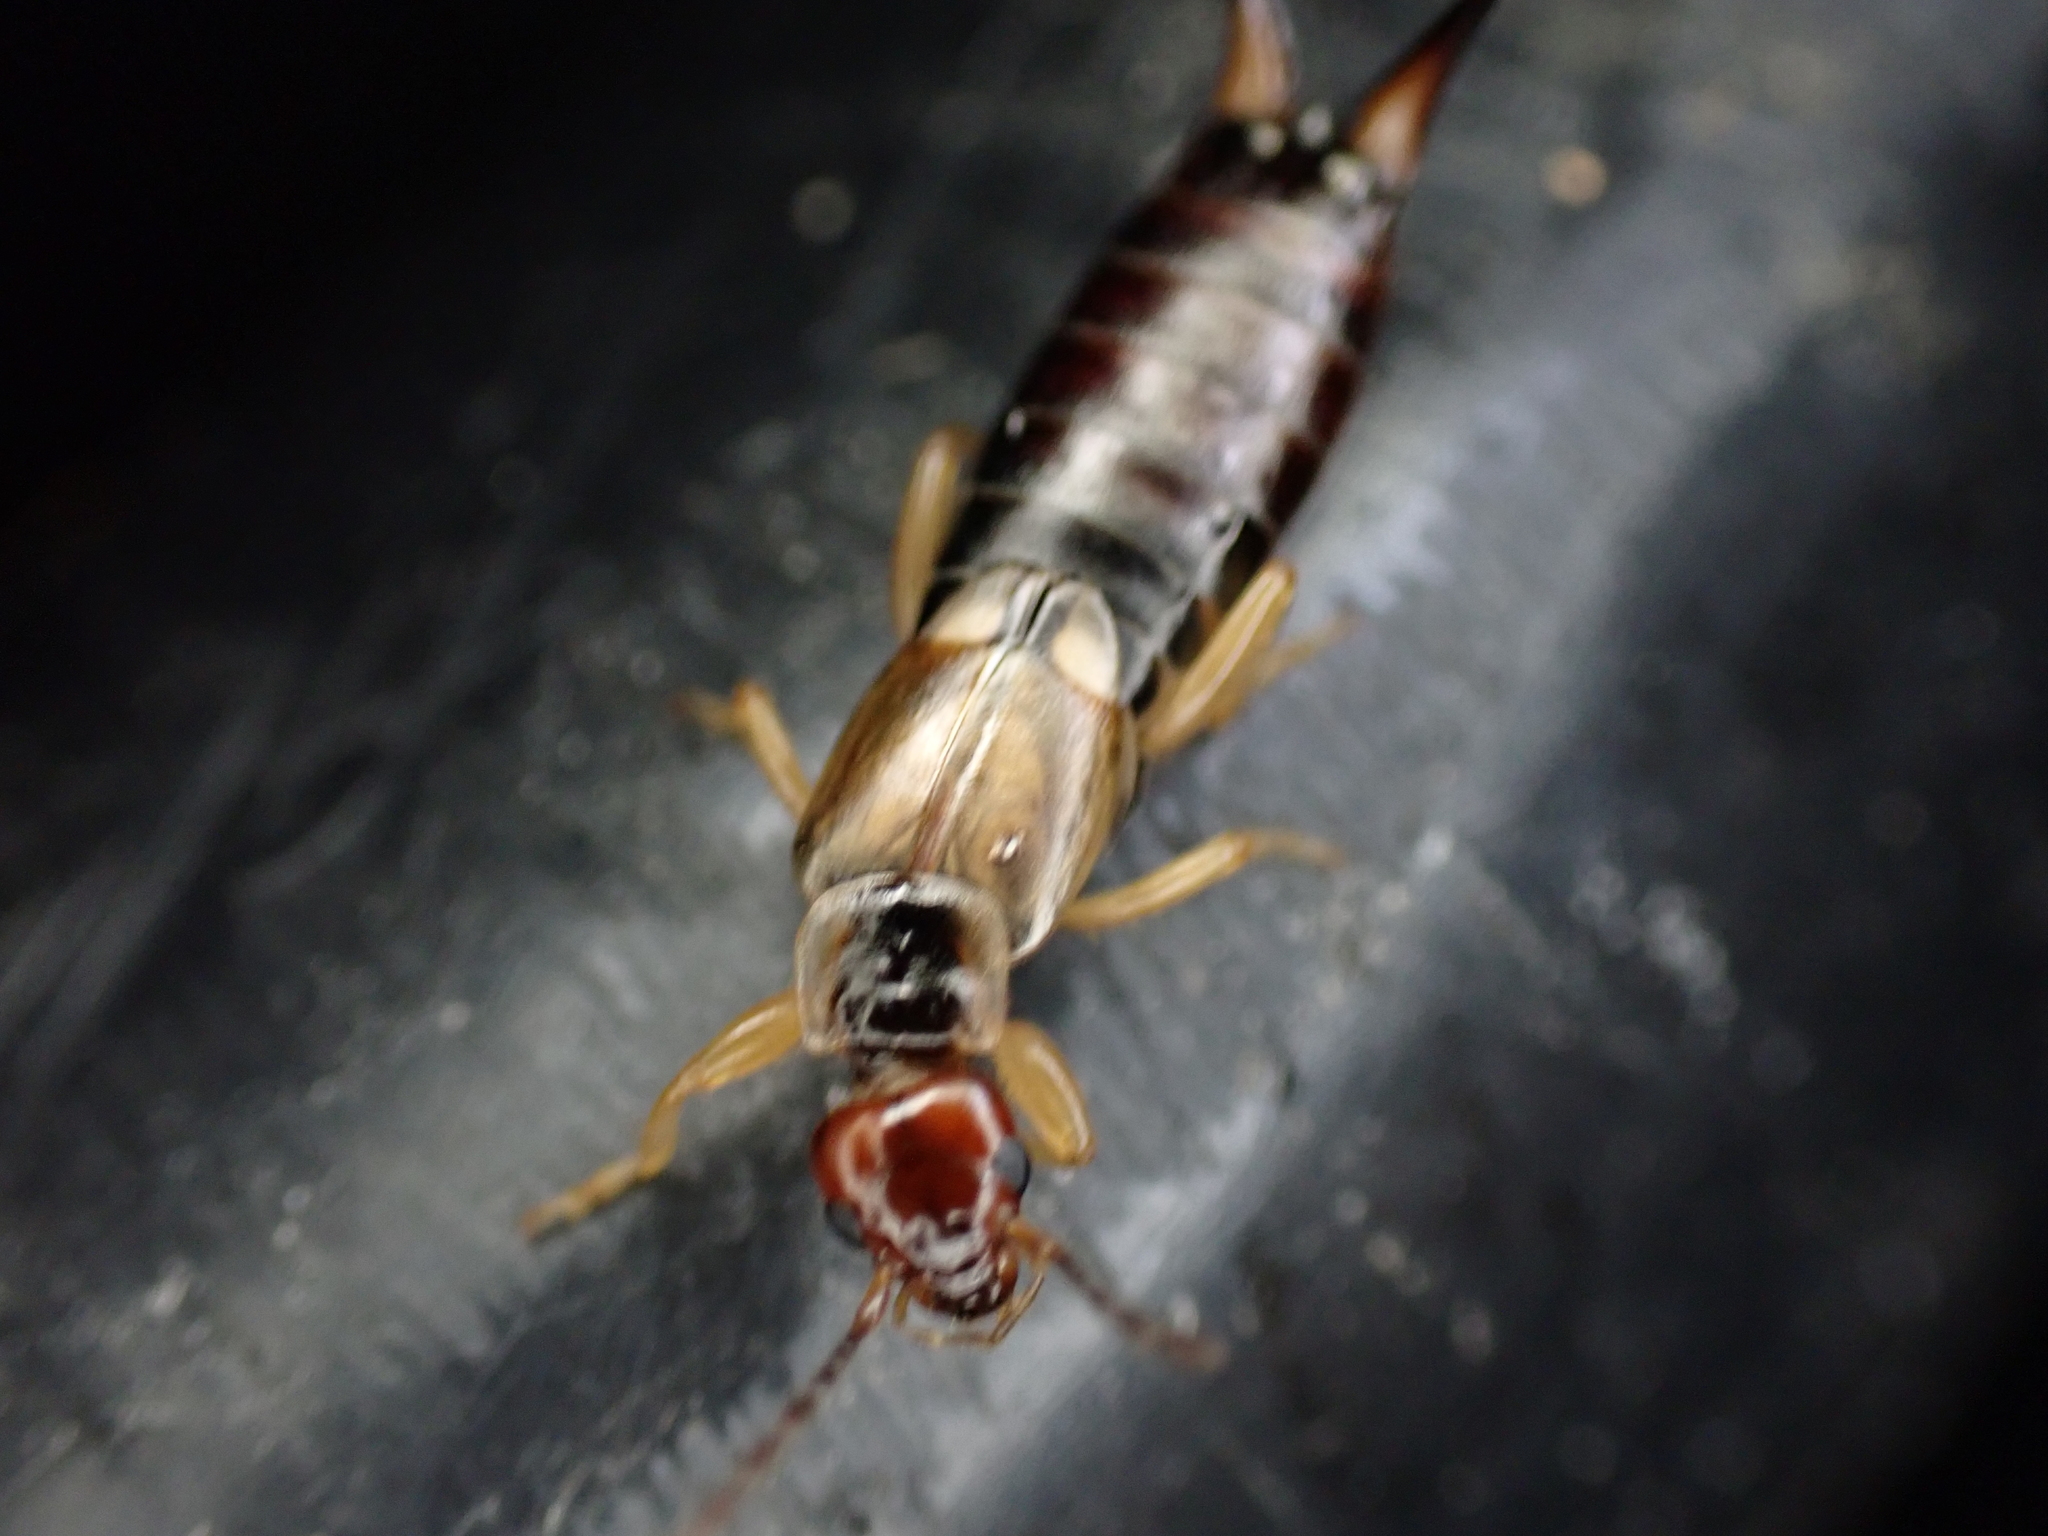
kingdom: Animalia
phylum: Arthropoda
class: Insecta
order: Dermaptera
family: Forficulidae
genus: Forficula
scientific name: Forficula
